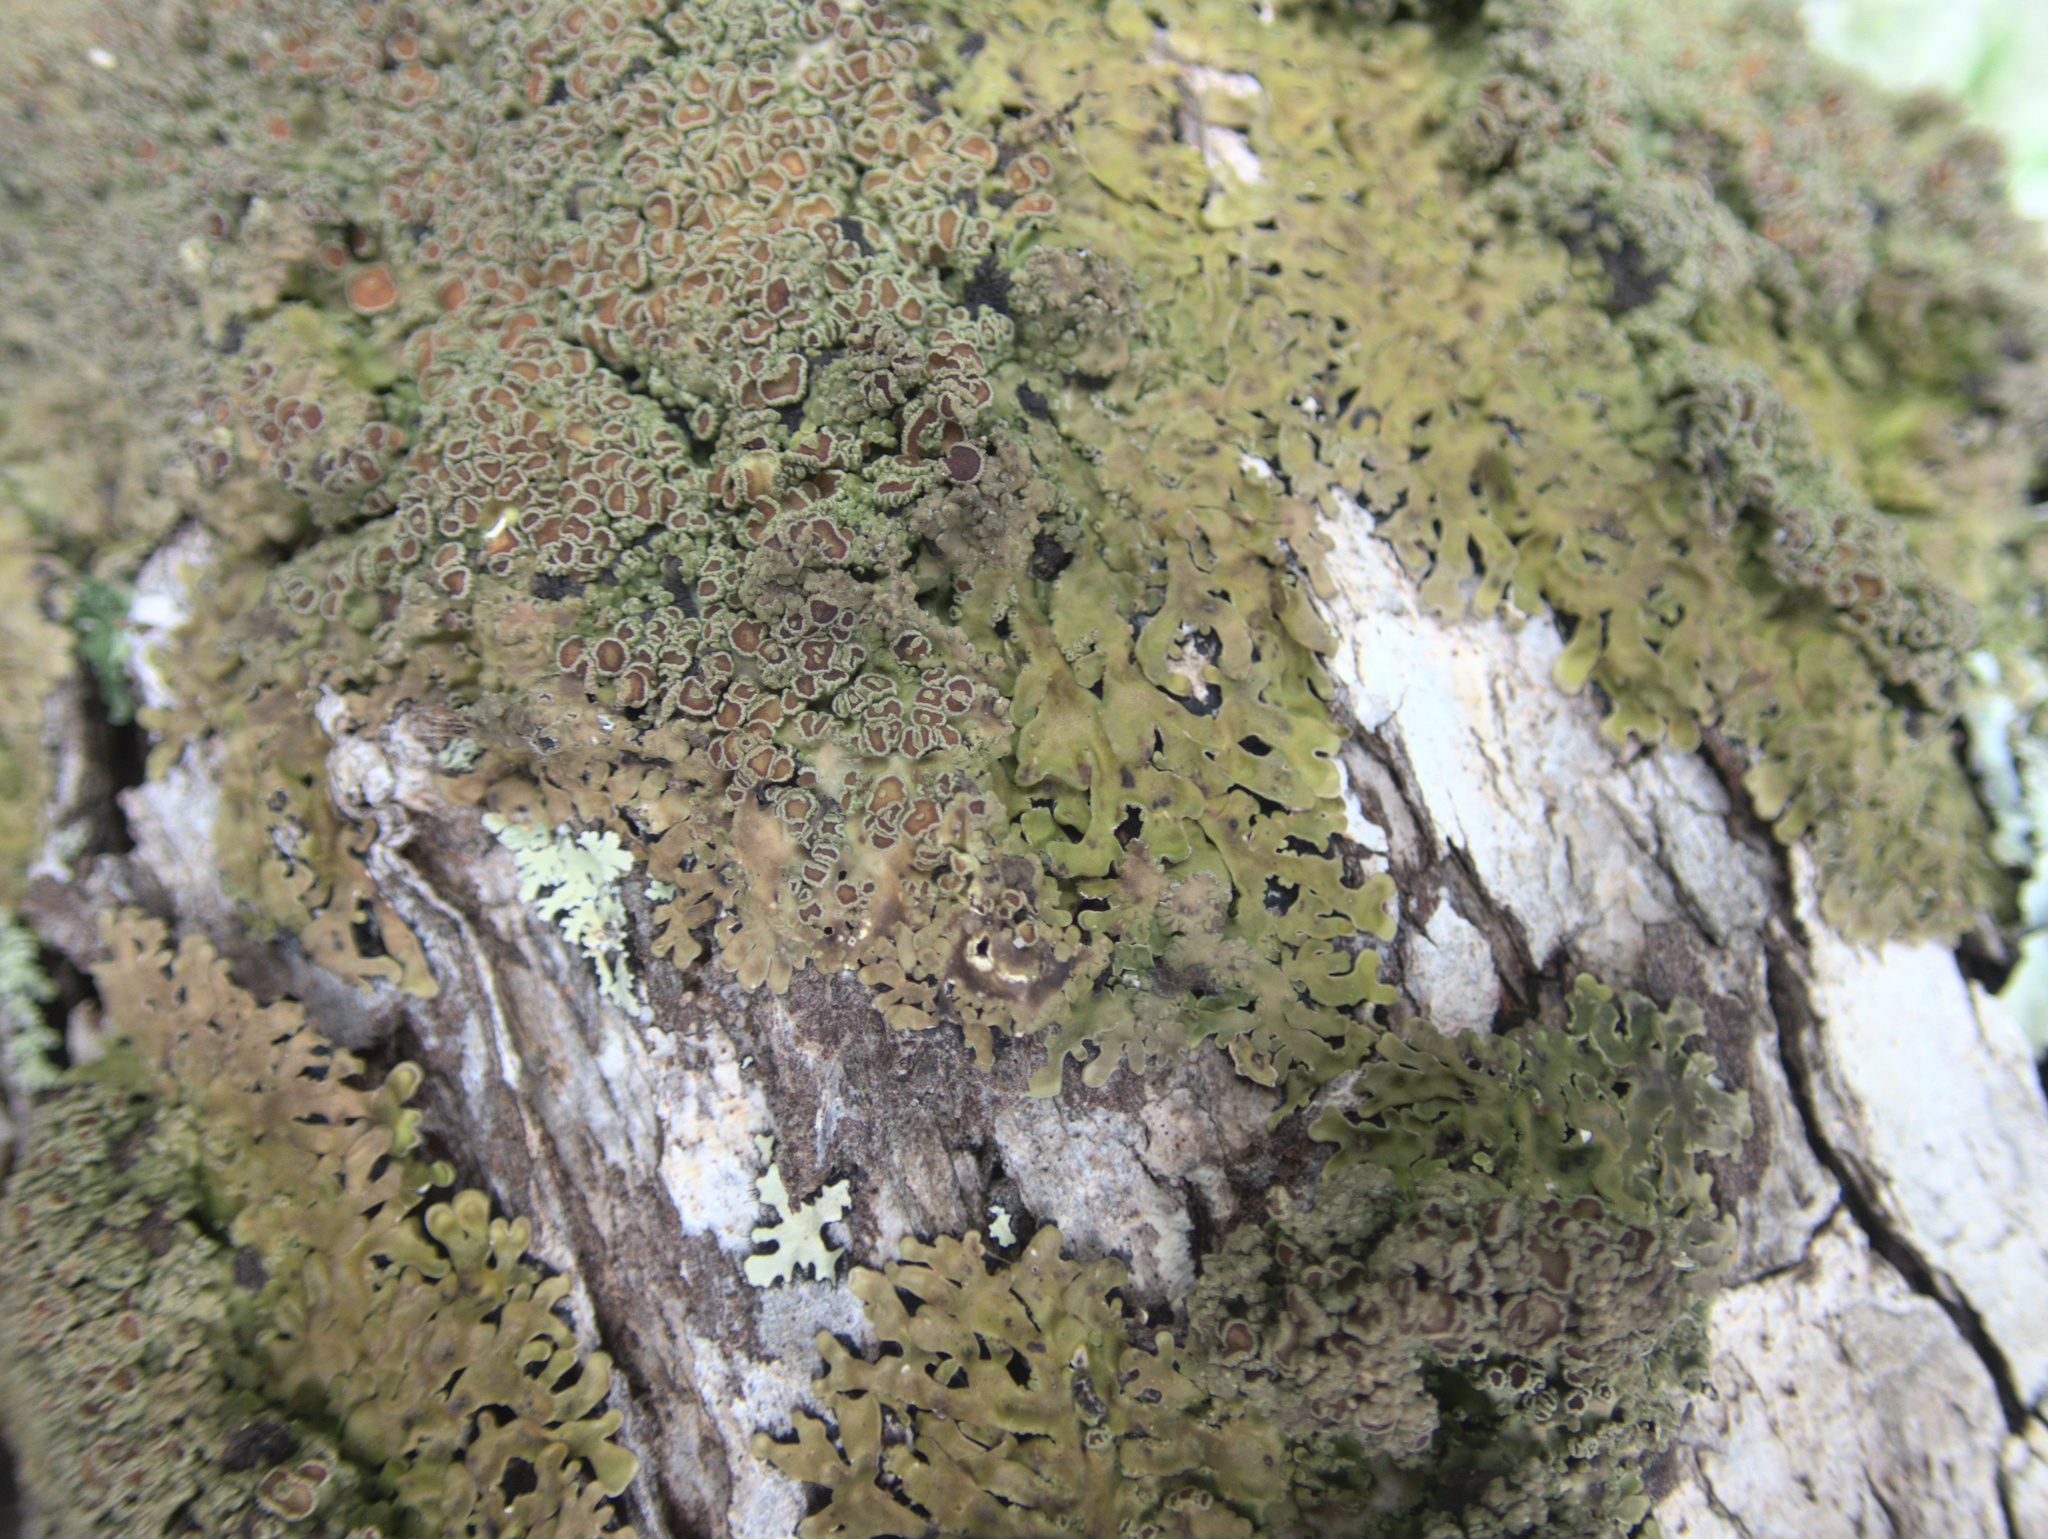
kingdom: Fungi
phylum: Ascomycota
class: Lecanoromycetes
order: Peltigerales
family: Pannariaceae
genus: Pannaria
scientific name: Pannaria allorhiza
